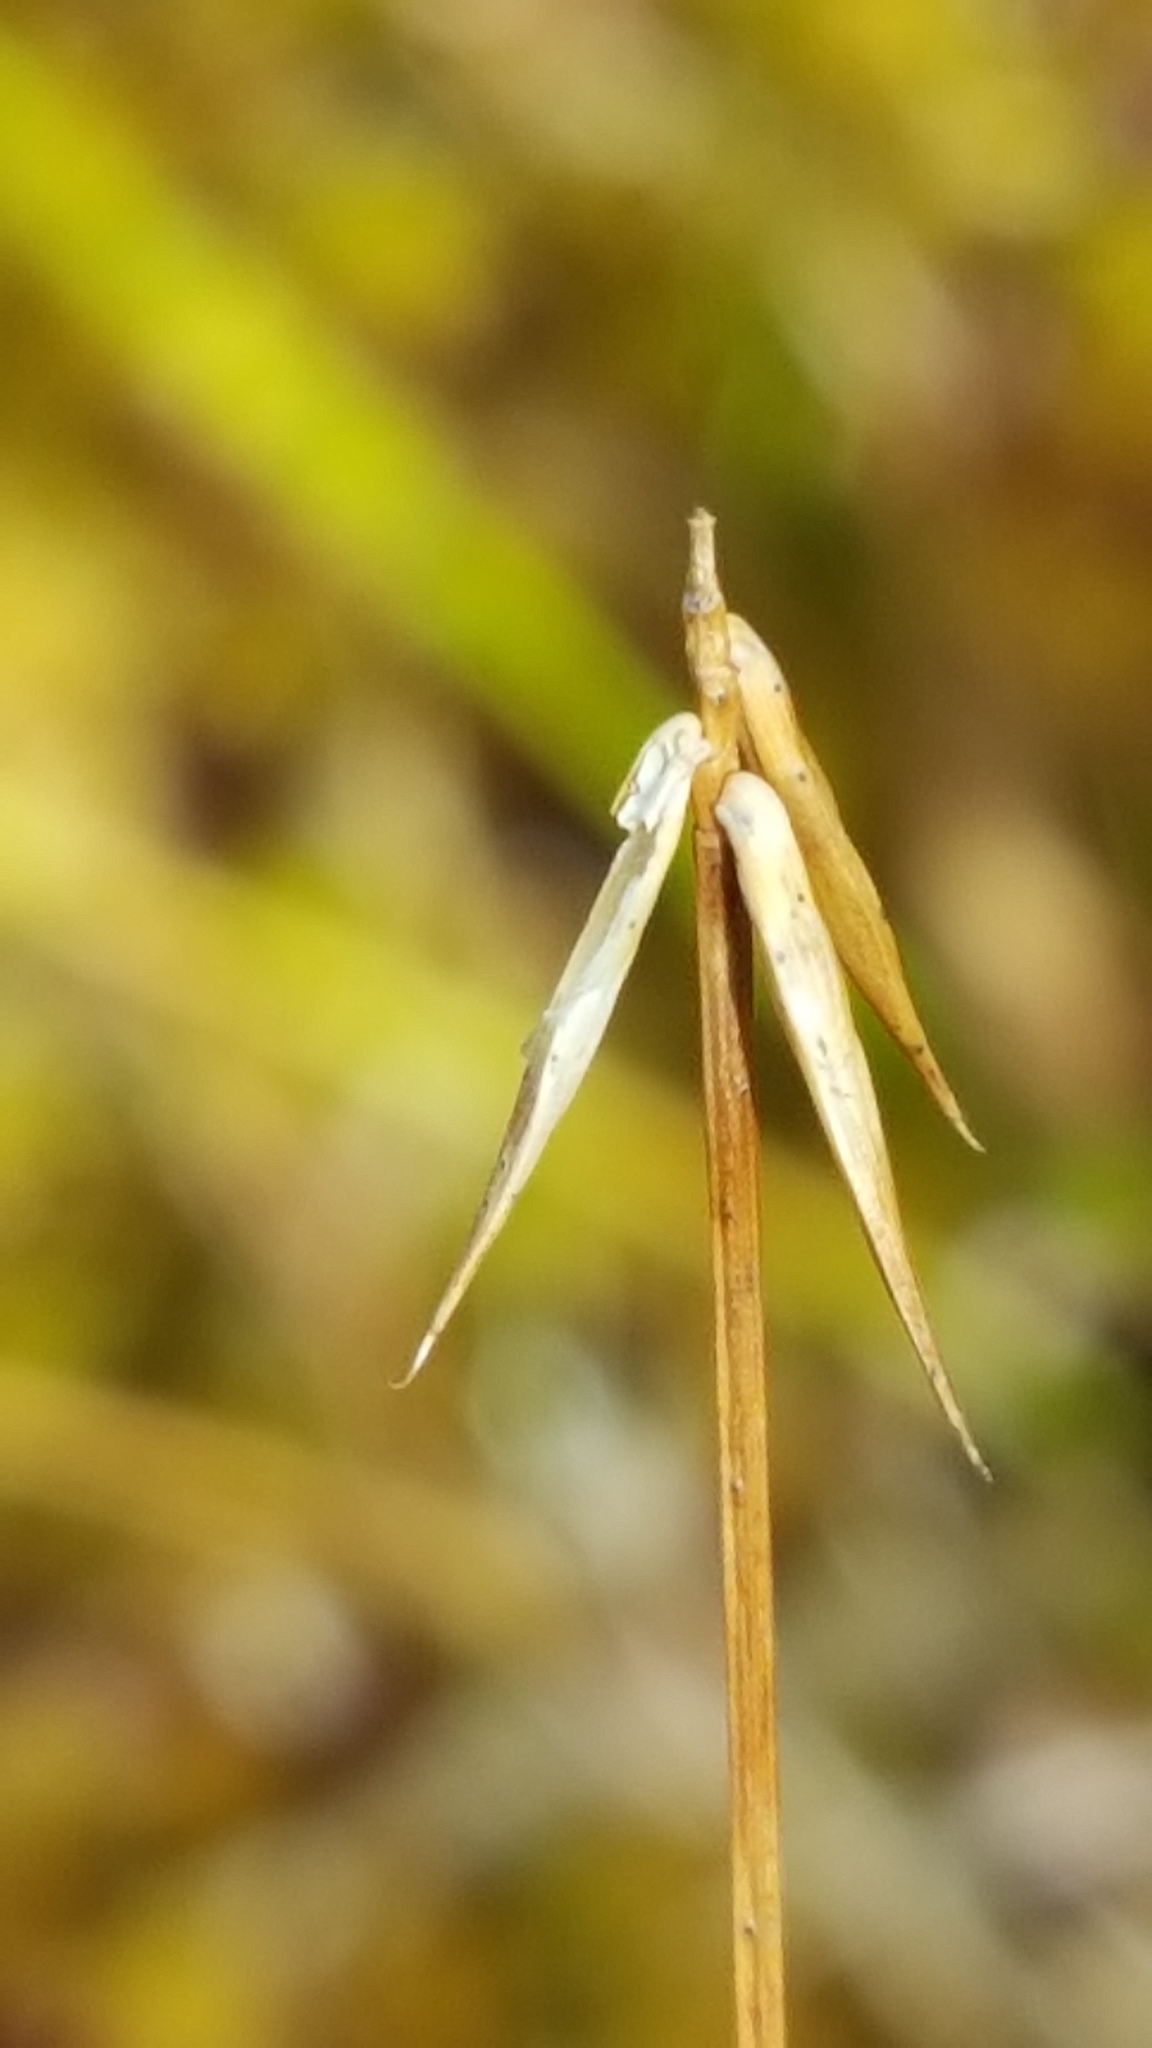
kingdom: Plantae
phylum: Tracheophyta
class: Liliopsida
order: Poales
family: Cyperaceae
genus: Carex
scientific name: Carex pauciflora
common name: Few-flowered sedge
